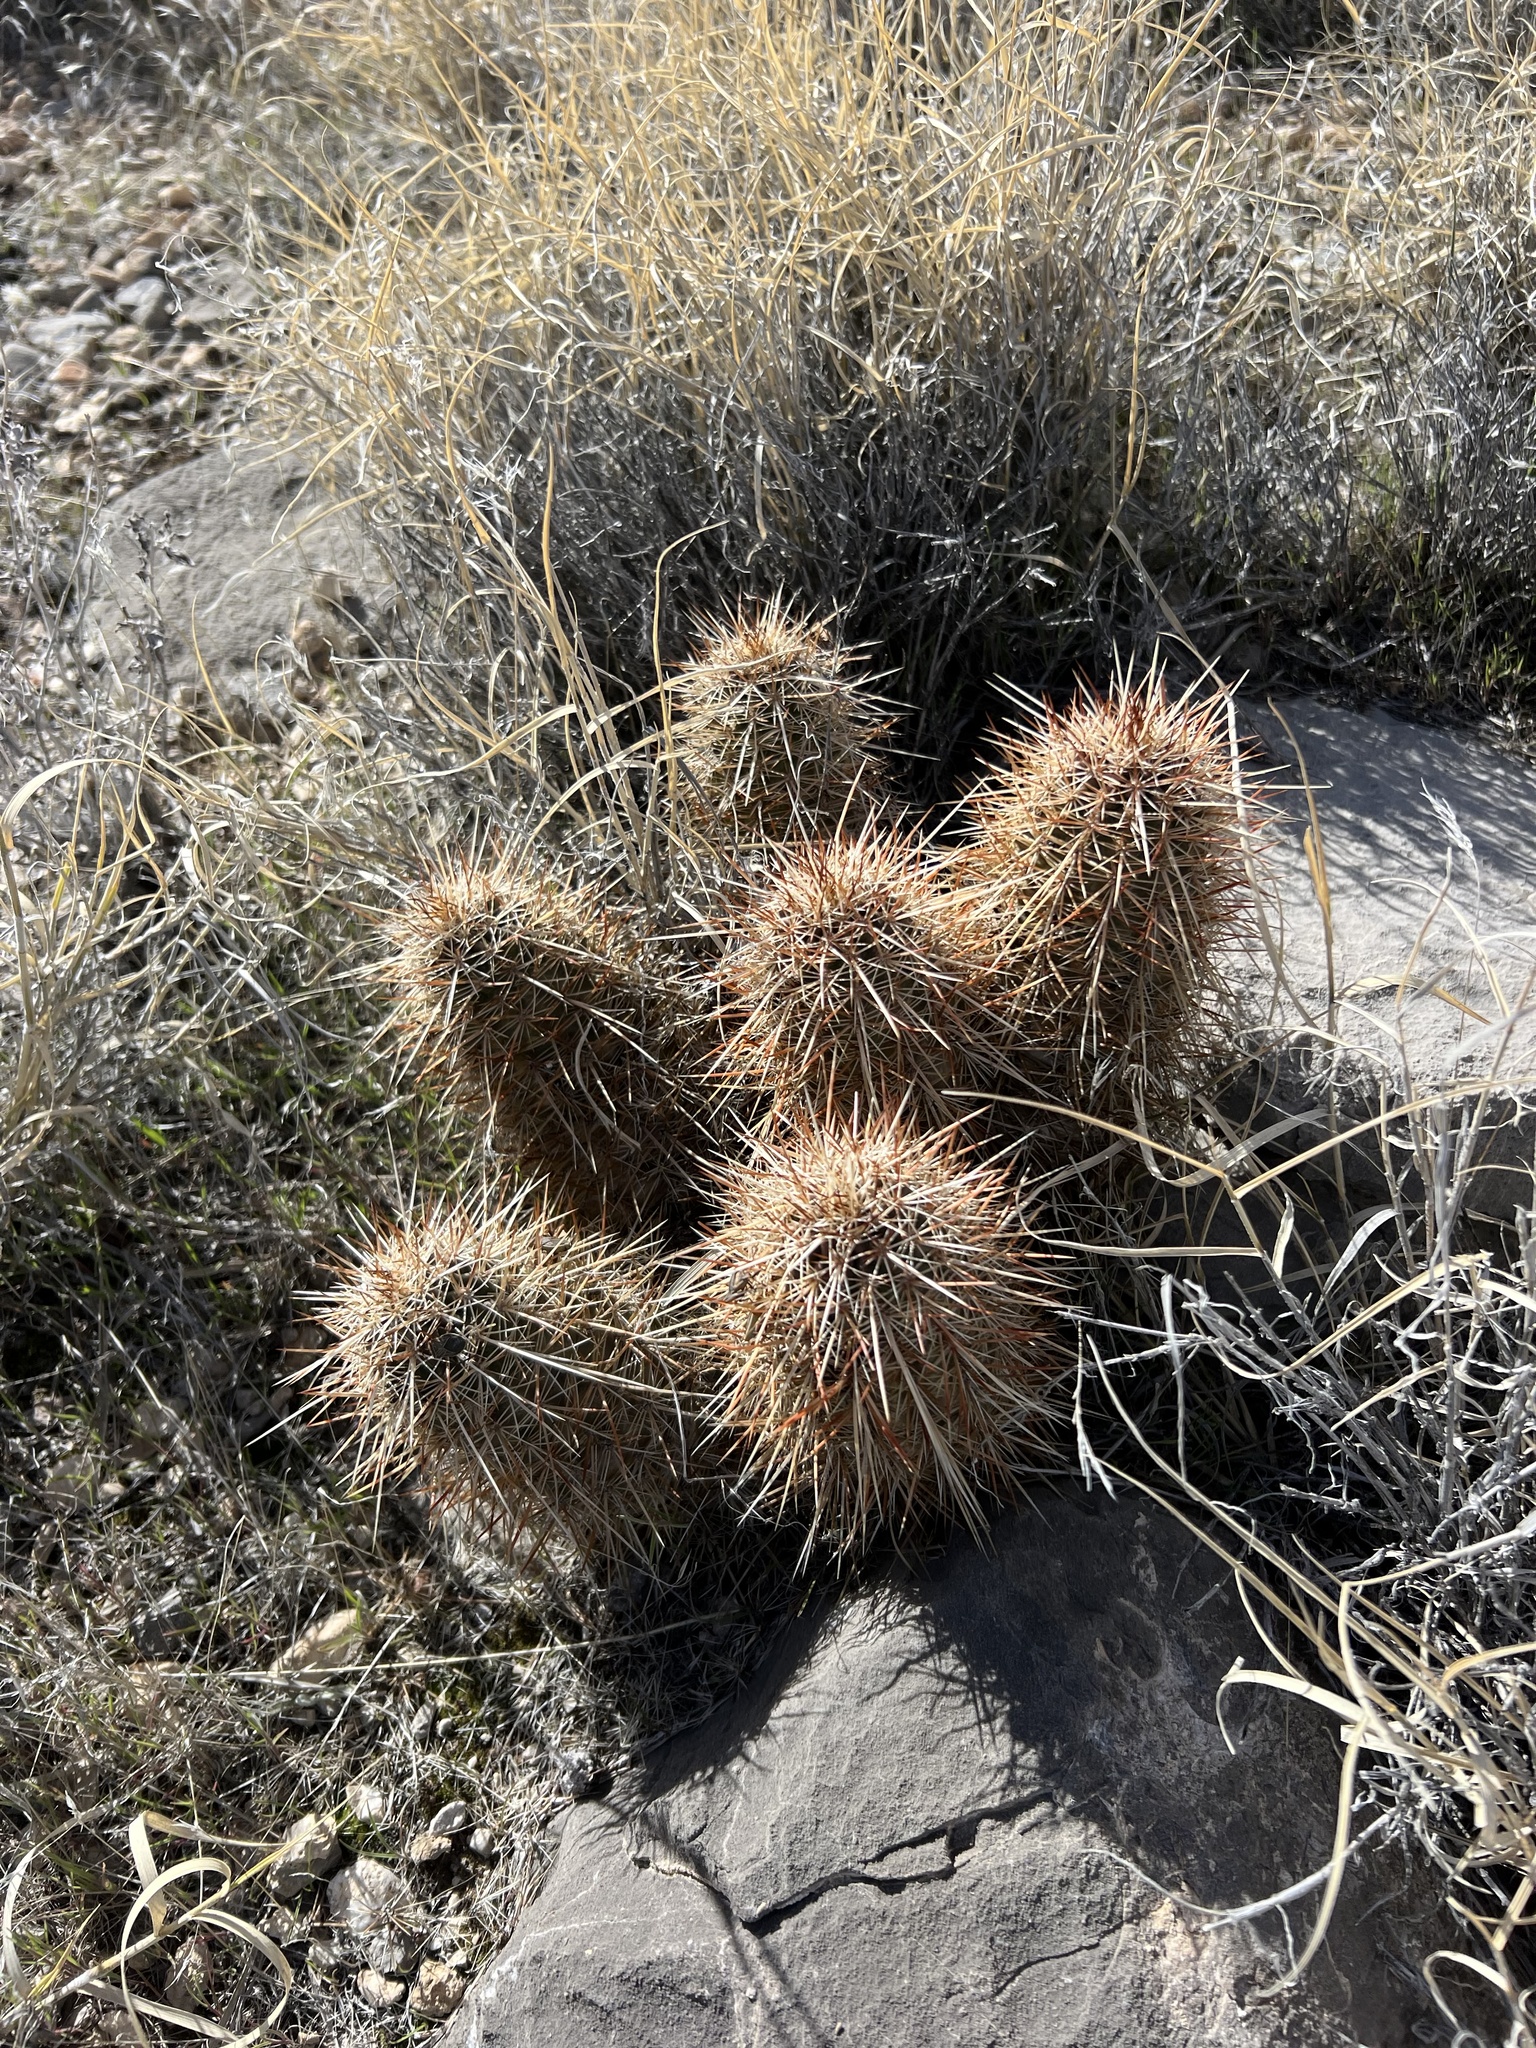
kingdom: Plantae
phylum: Tracheophyta
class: Magnoliopsida
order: Caryophyllales
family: Cactaceae
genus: Echinocereus
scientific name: Echinocereus engelmannii
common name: Engelmann's hedgehog cactus
